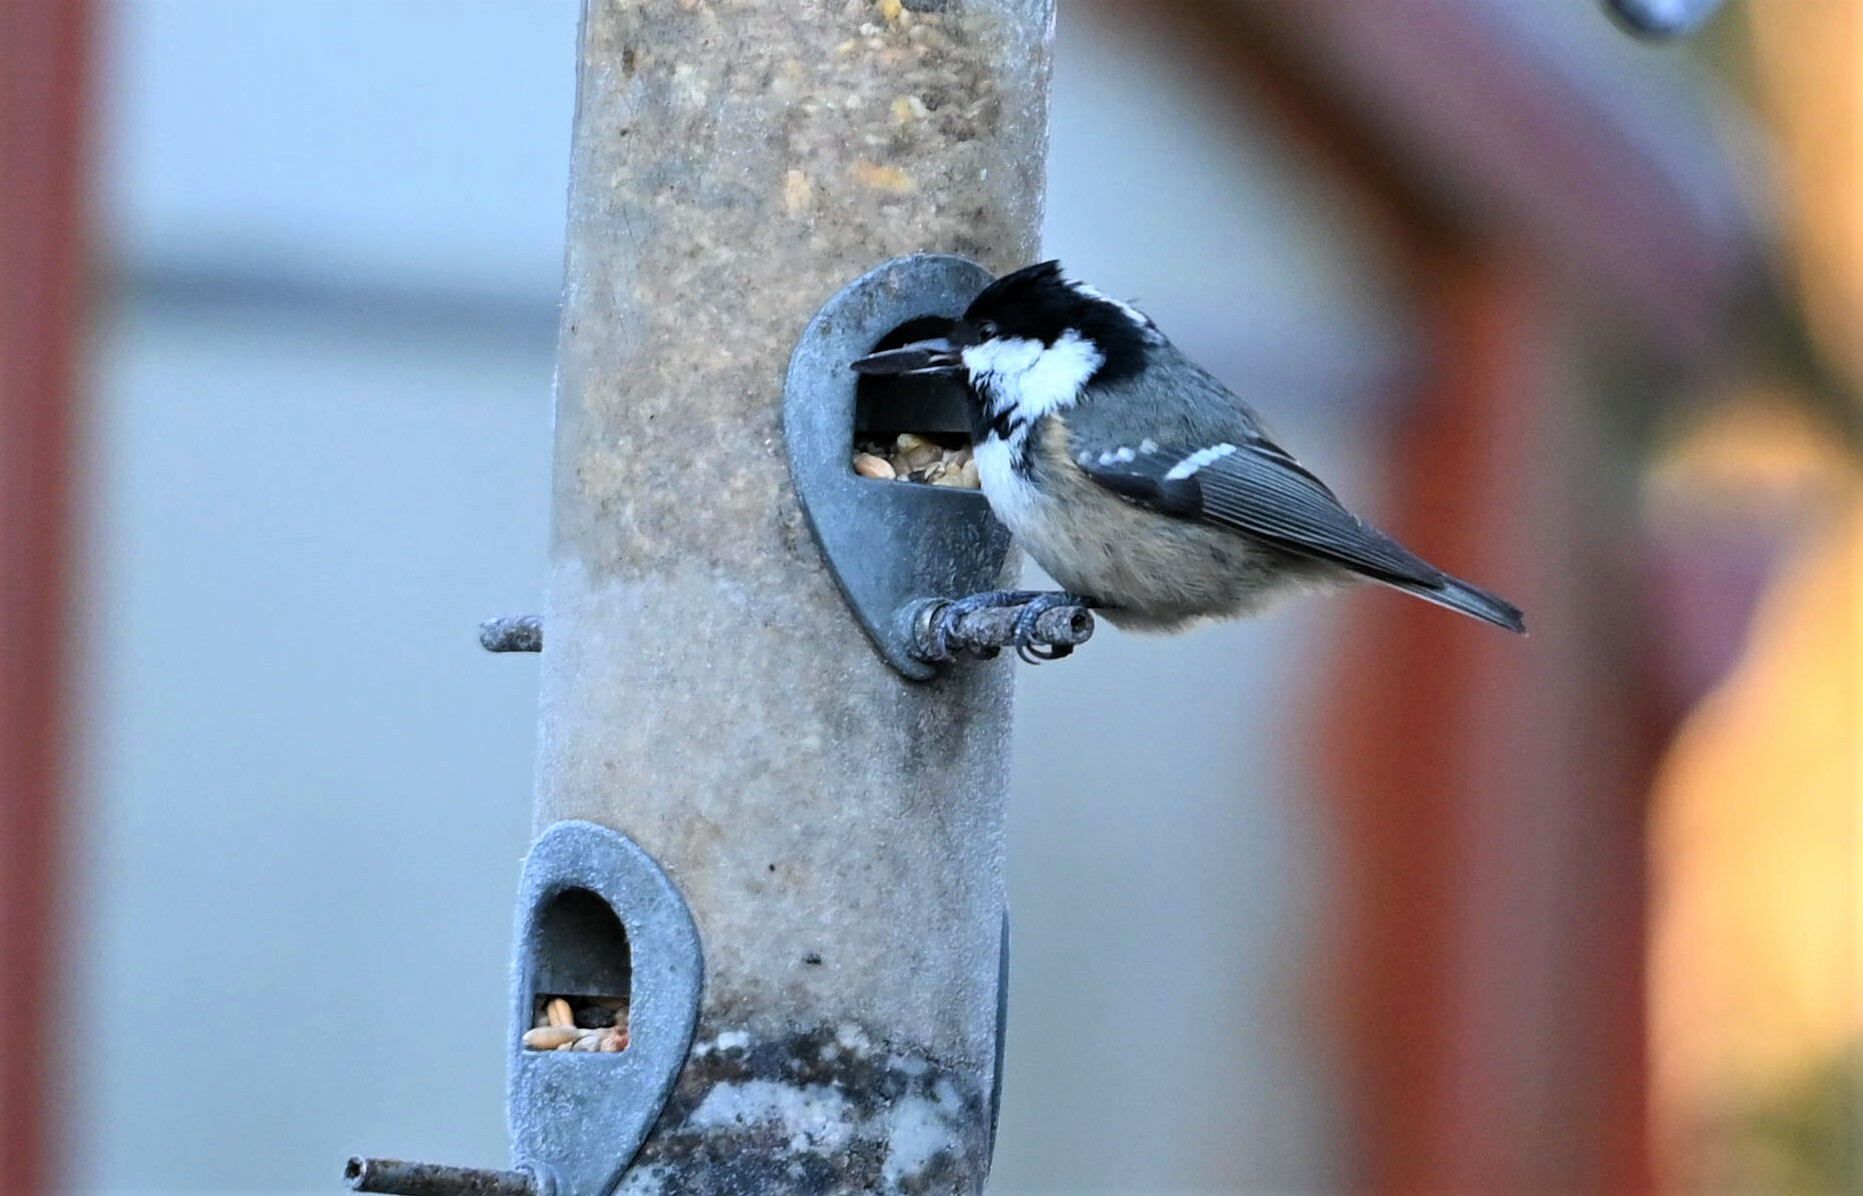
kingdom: Animalia
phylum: Chordata
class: Aves
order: Passeriformes
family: Paridae
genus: Periparus
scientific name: Periparus ater
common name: Coal tit
